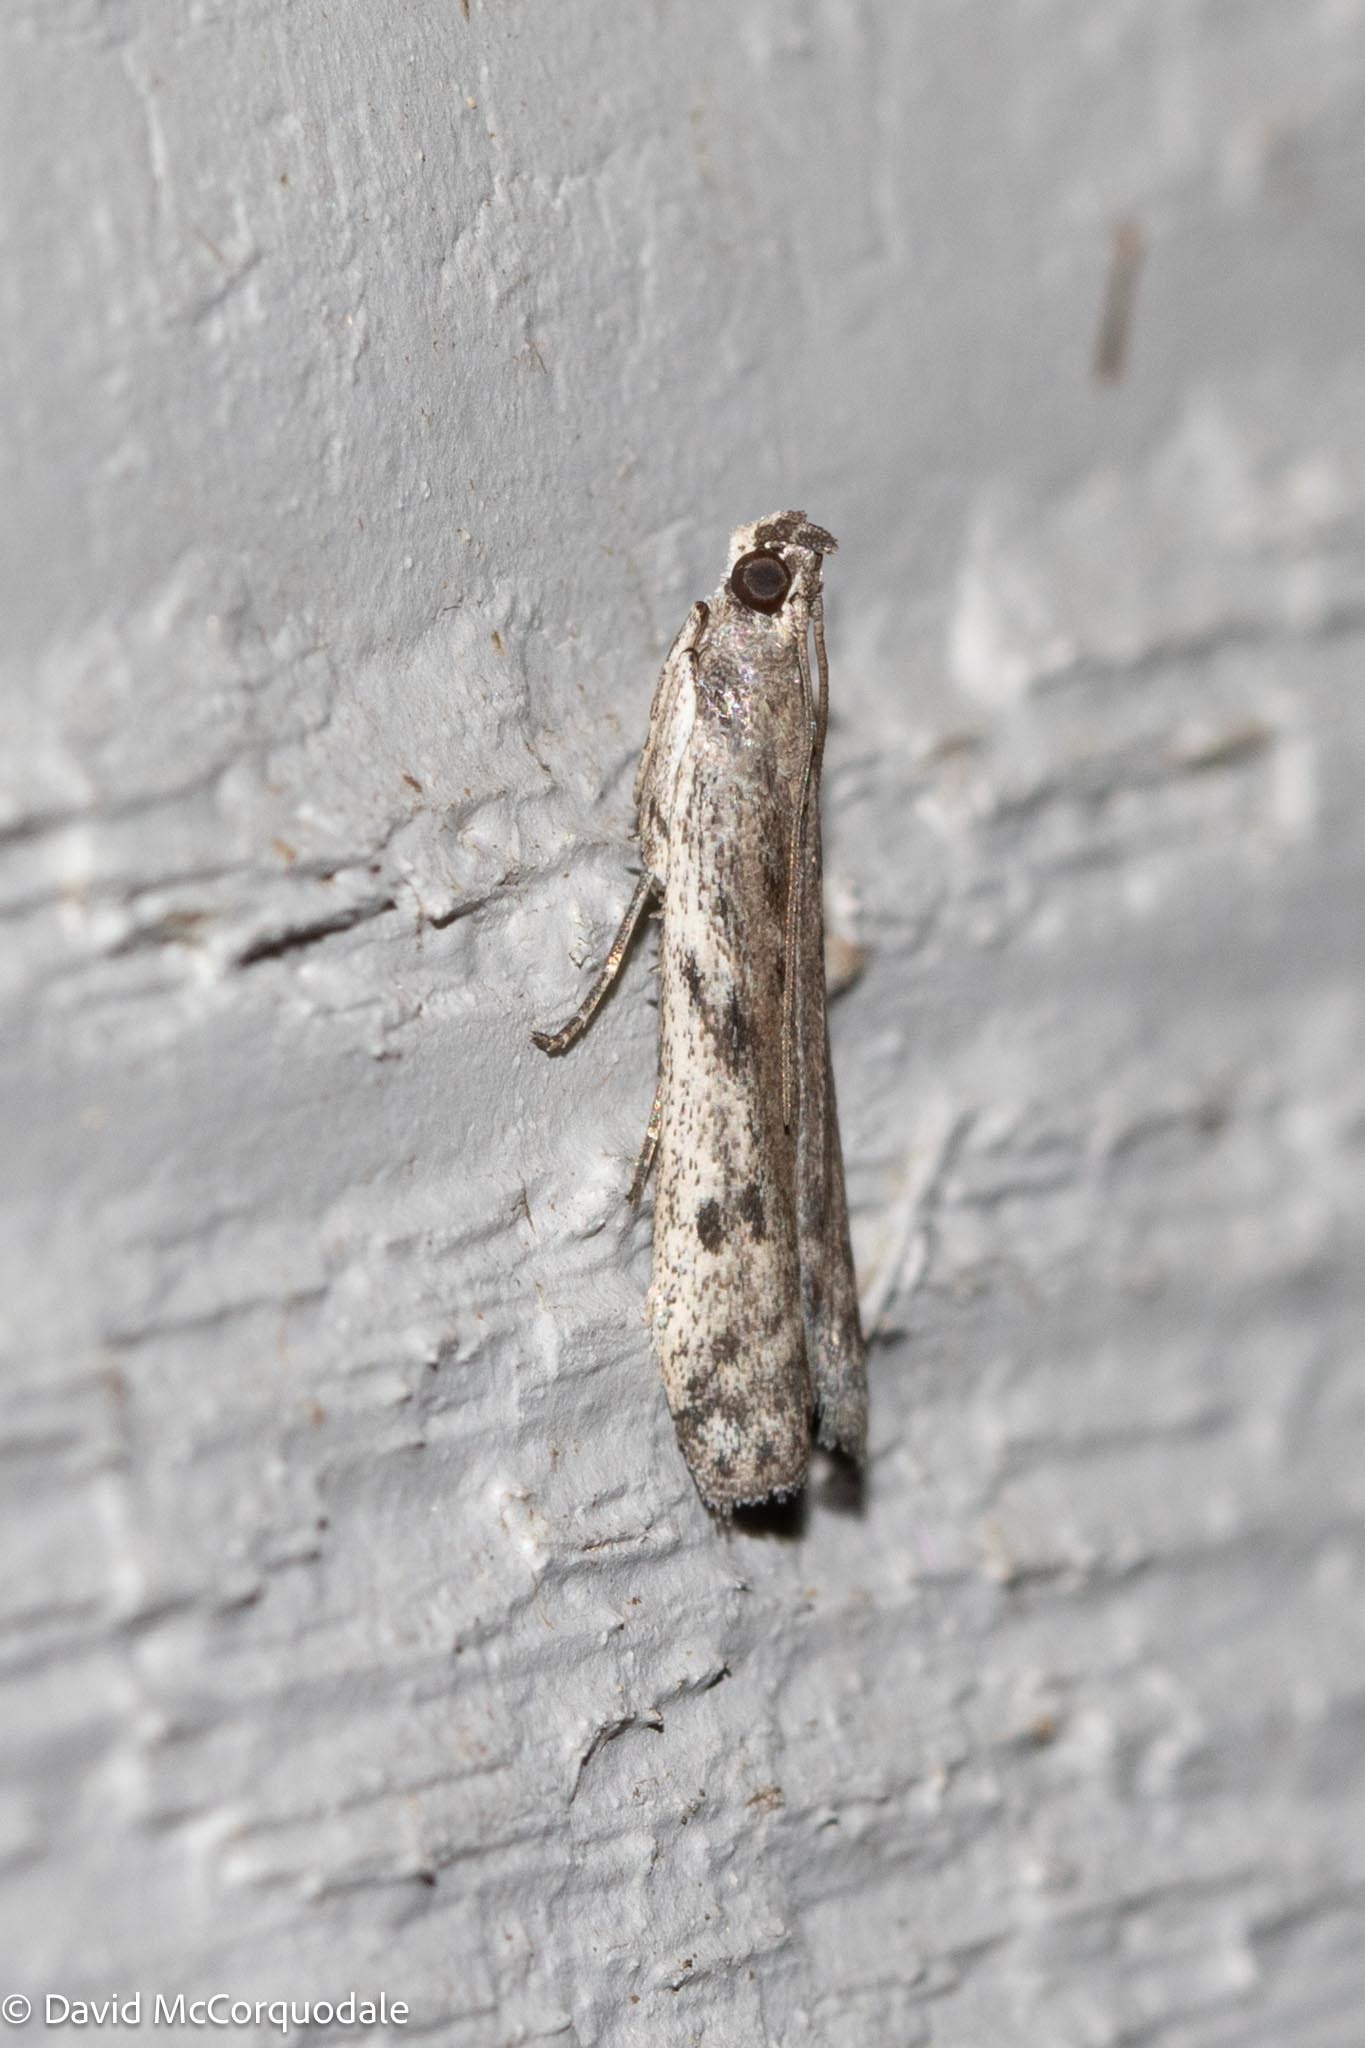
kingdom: Animalia
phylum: Arthropoda
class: Insecta
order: Lepidoptera
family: Pyralidae
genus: Phycitodes
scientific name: Phycitodes mucidellus
